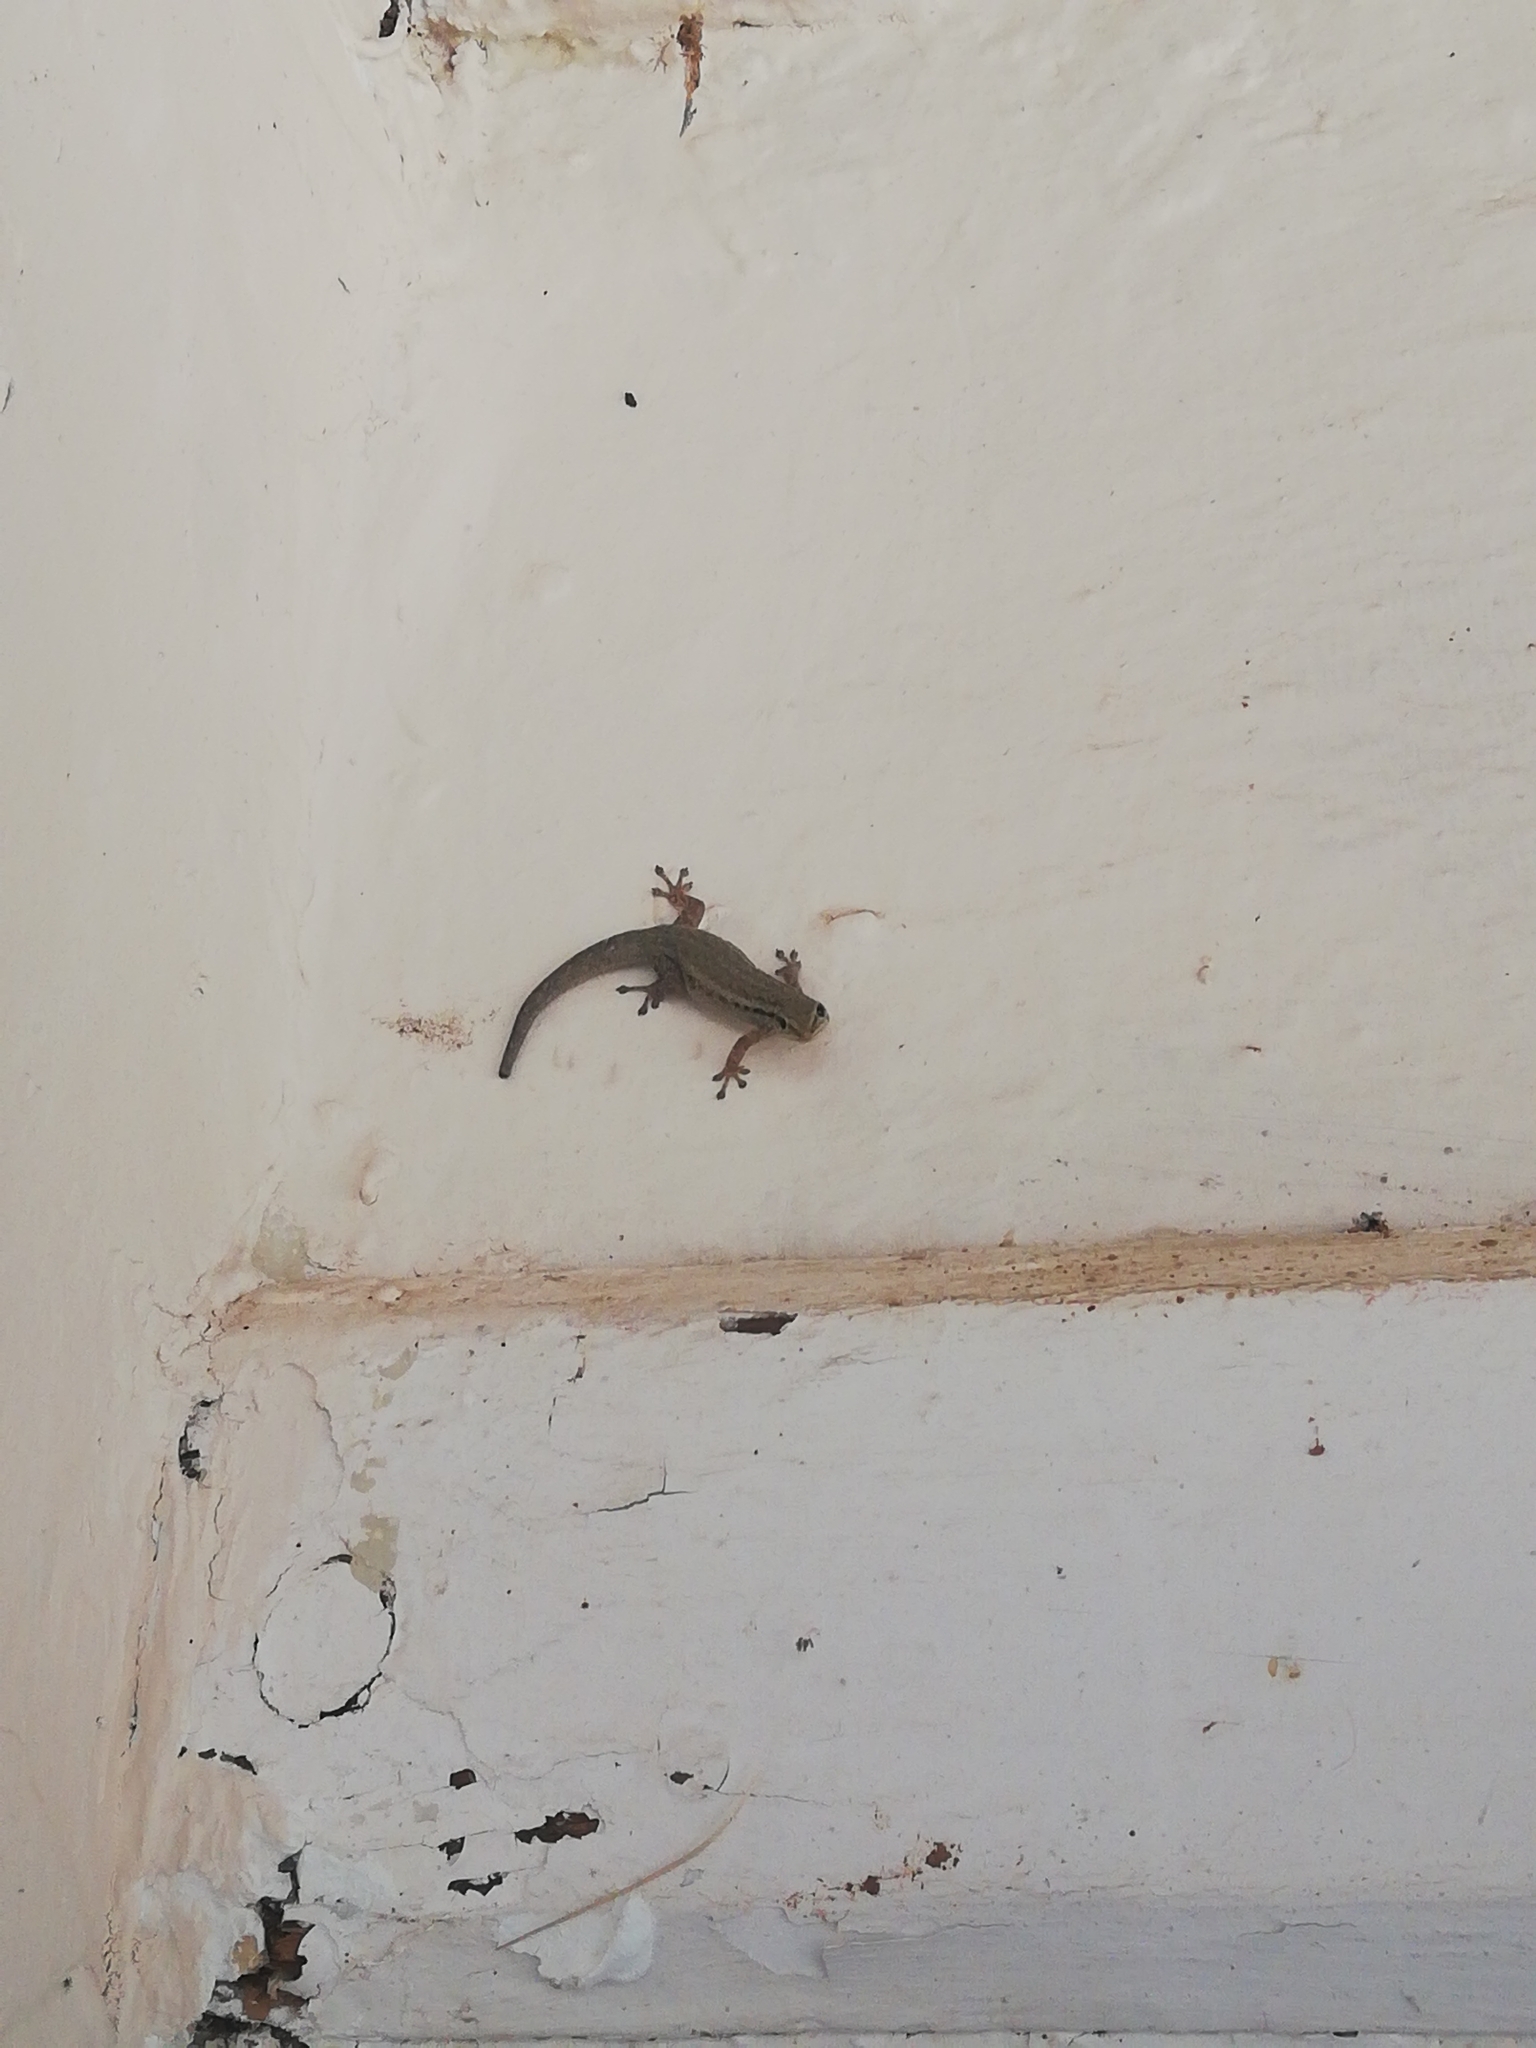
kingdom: Animalia
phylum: Chordata
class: Squamata
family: Gekkonidae
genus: Lygodactylus
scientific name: Lygodactylus capensis
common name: Cape dwarf gecko
